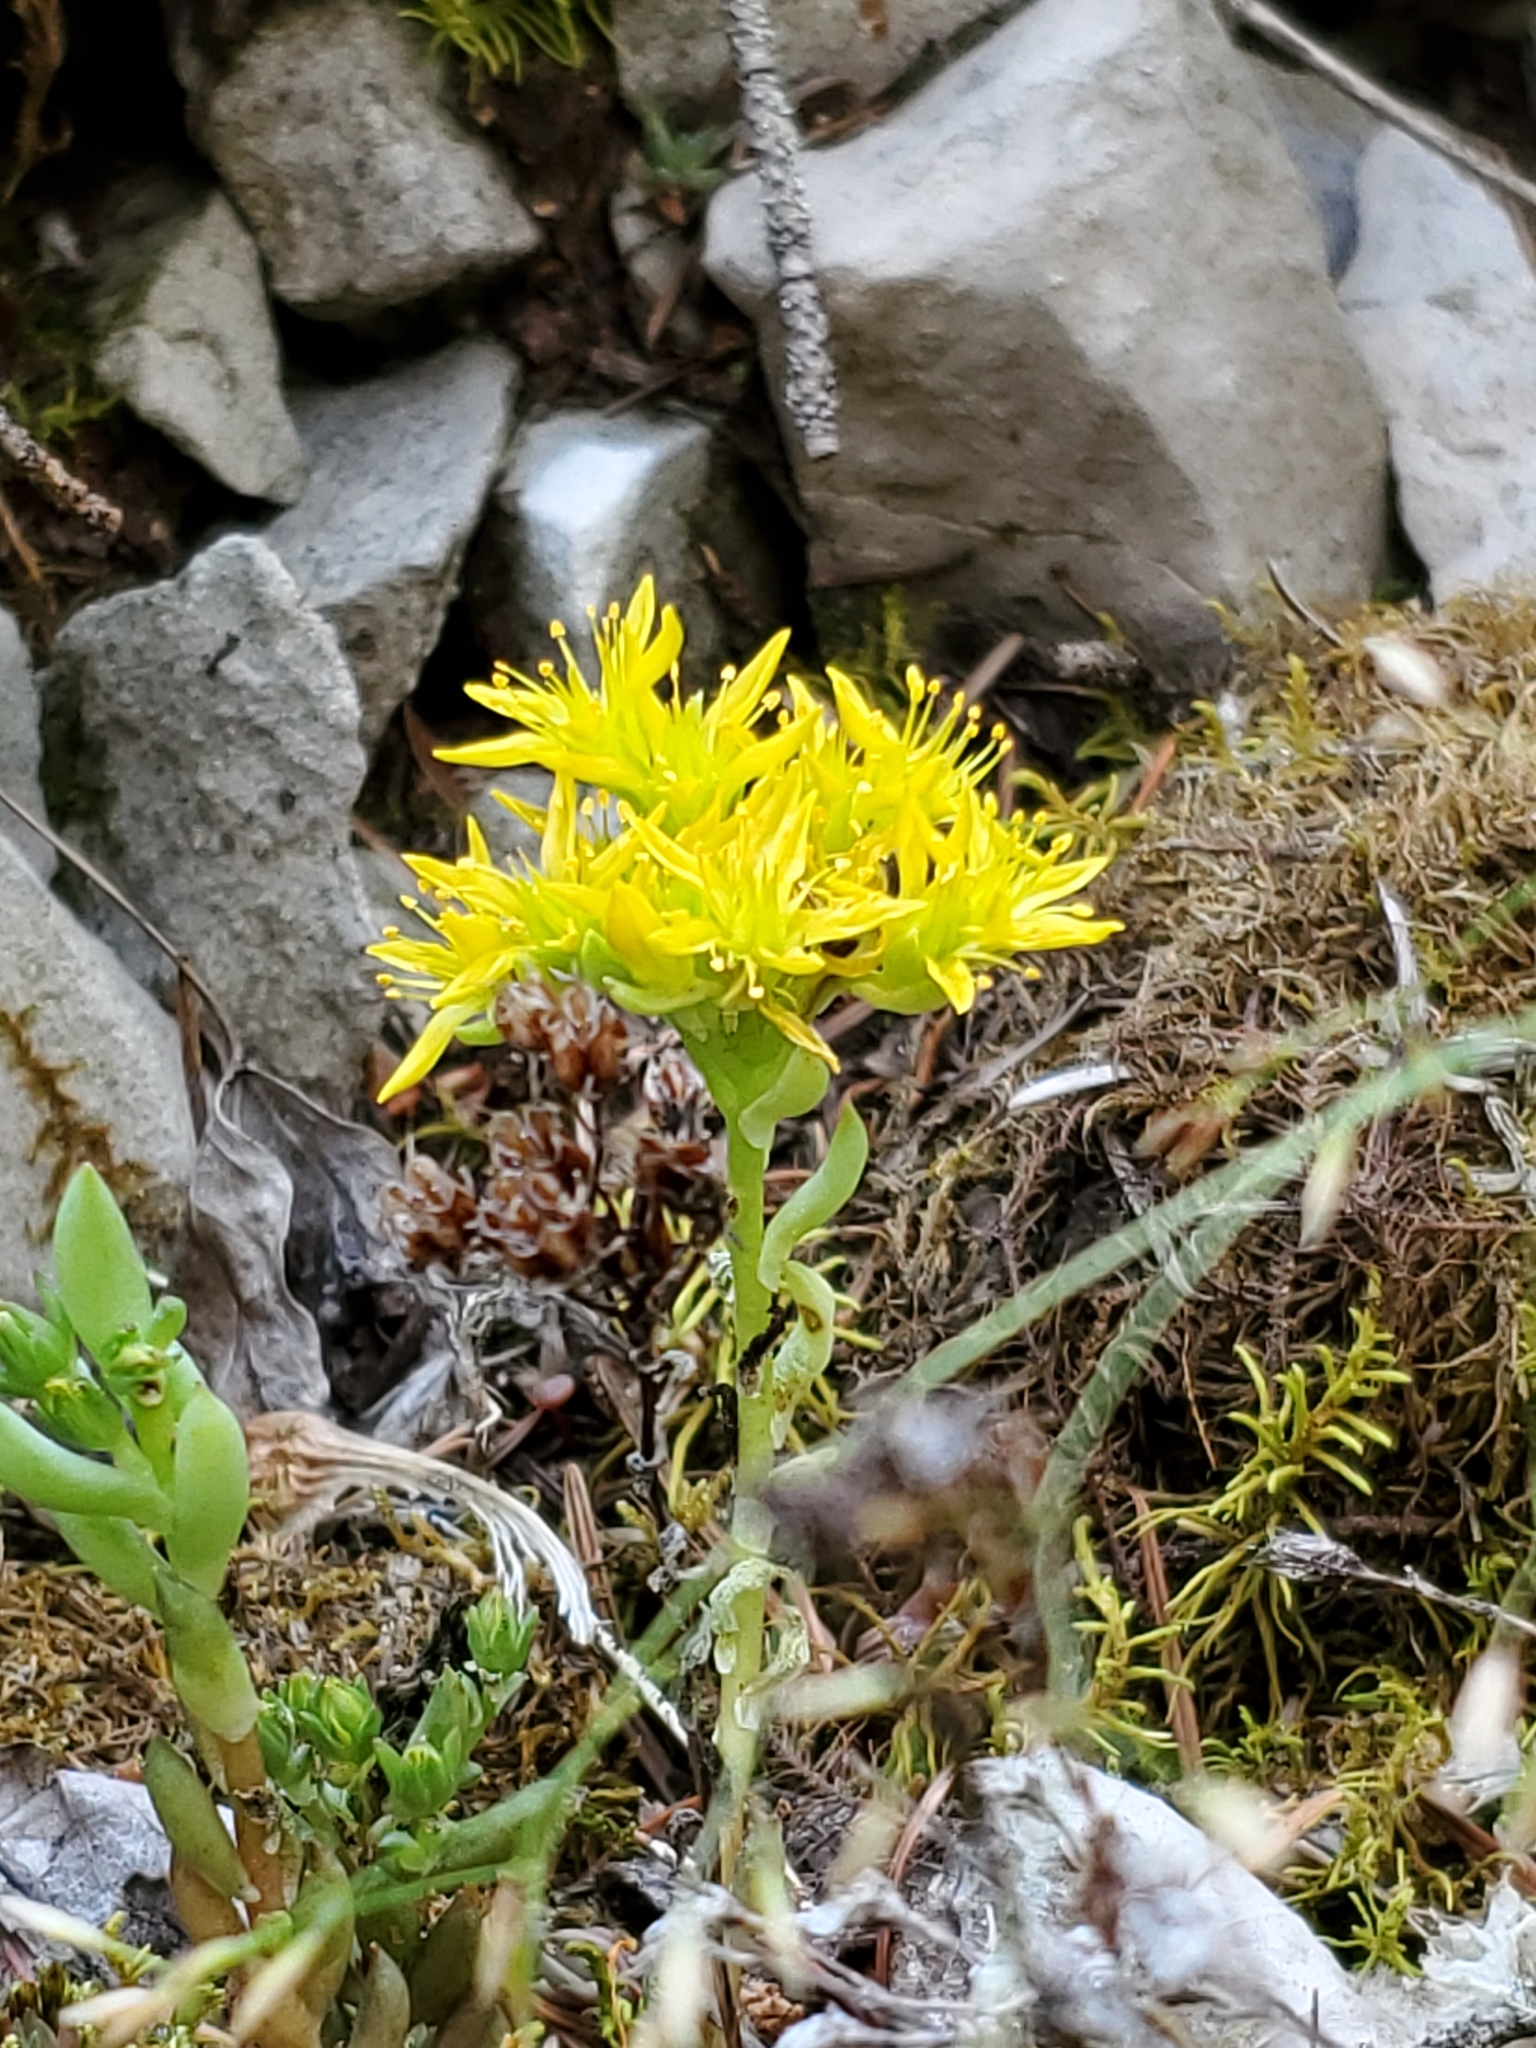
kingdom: Plantae
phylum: Tracheophyta
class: Magnoliopsida
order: Saxifragales
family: Crassulaceae
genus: Sedum
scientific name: Sedum lanceolatum
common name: Common stonecrop
